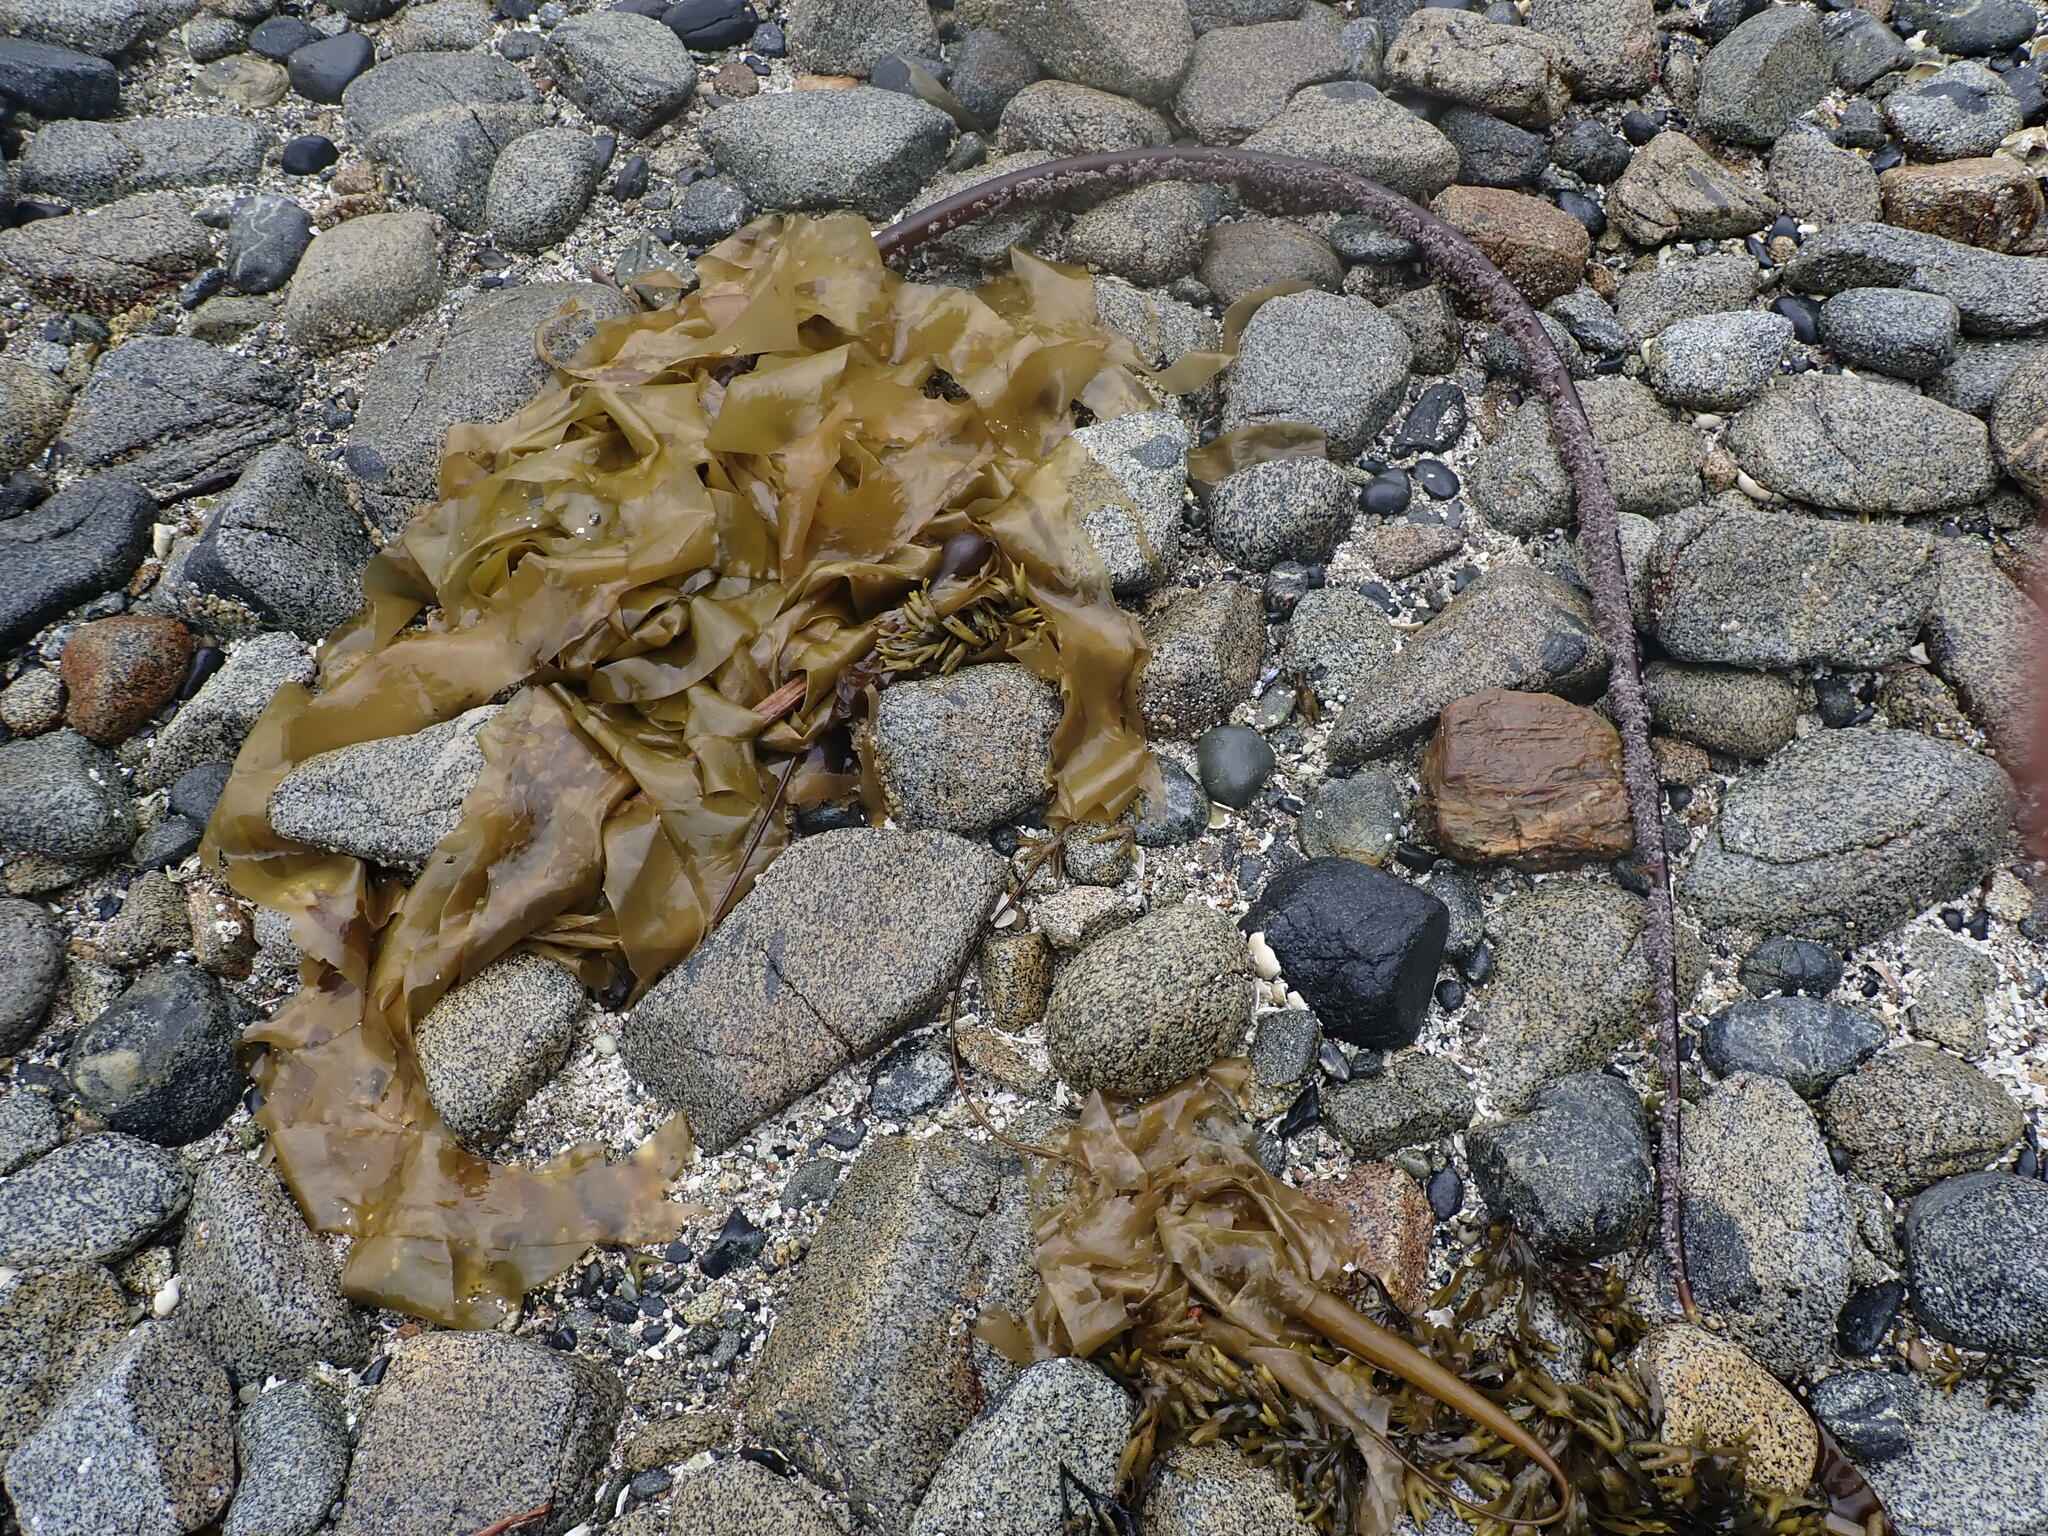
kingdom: Chromista
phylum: Ochrophyta
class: Phaeophyceae
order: Laminariales
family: Laminariaceae
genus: Nereocystis
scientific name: Nereocystis luetkeana
